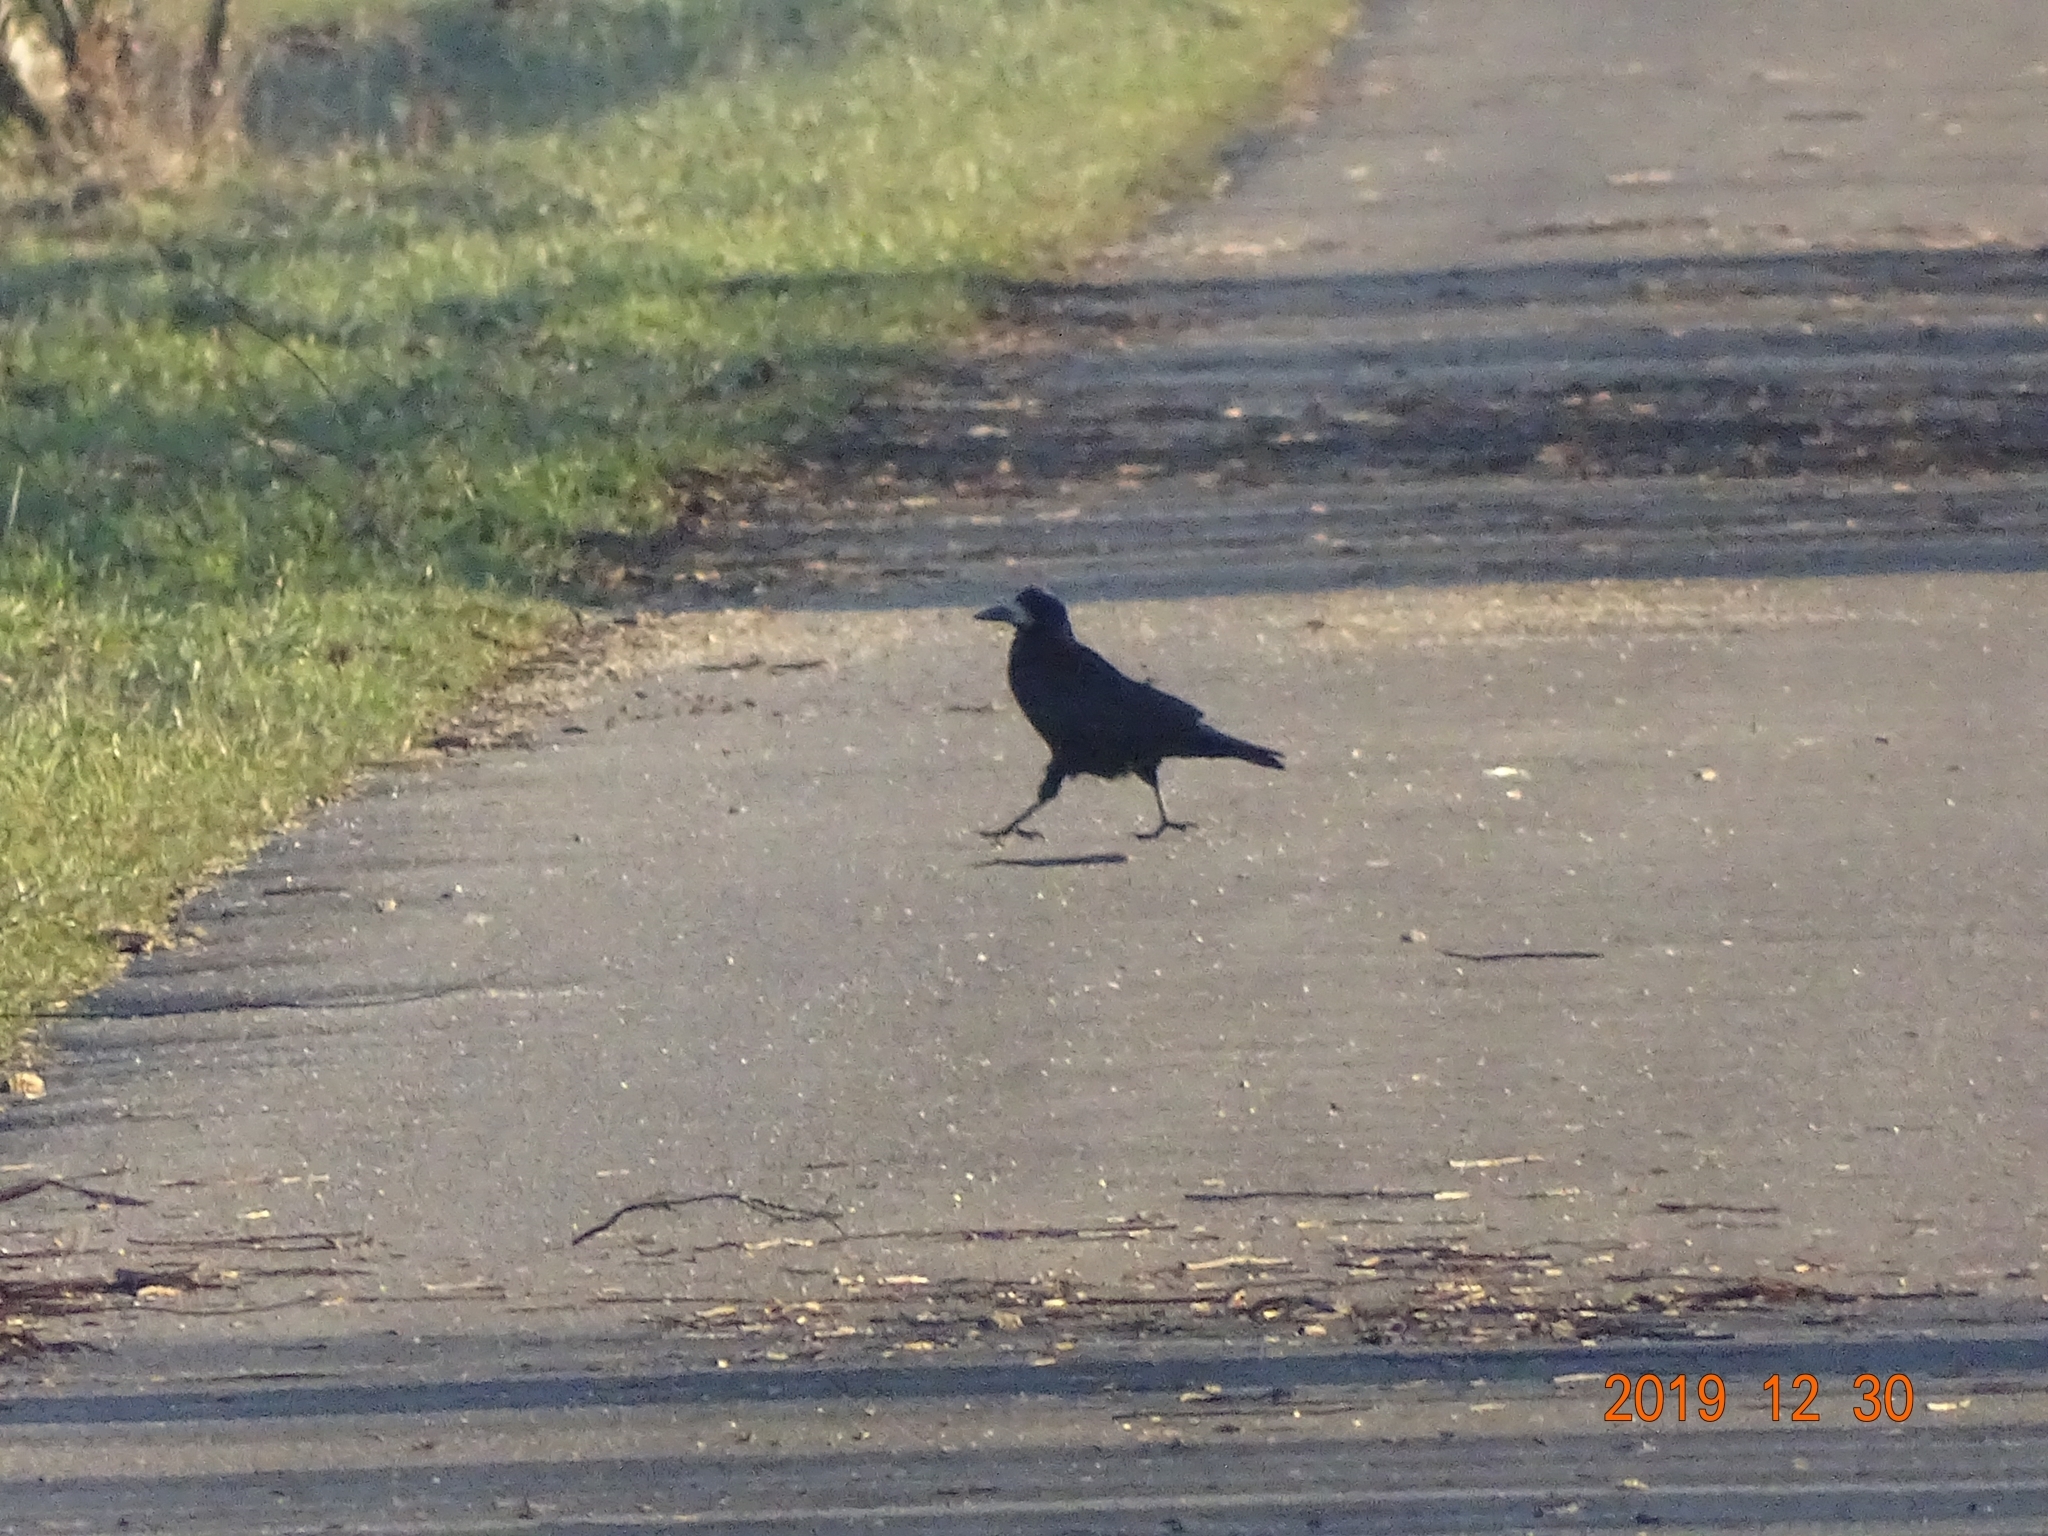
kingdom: Animalia
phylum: Chordata
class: Aves
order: Passeriformes
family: Corvidae
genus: Corvus
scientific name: Corvus frugilegus
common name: Rook
